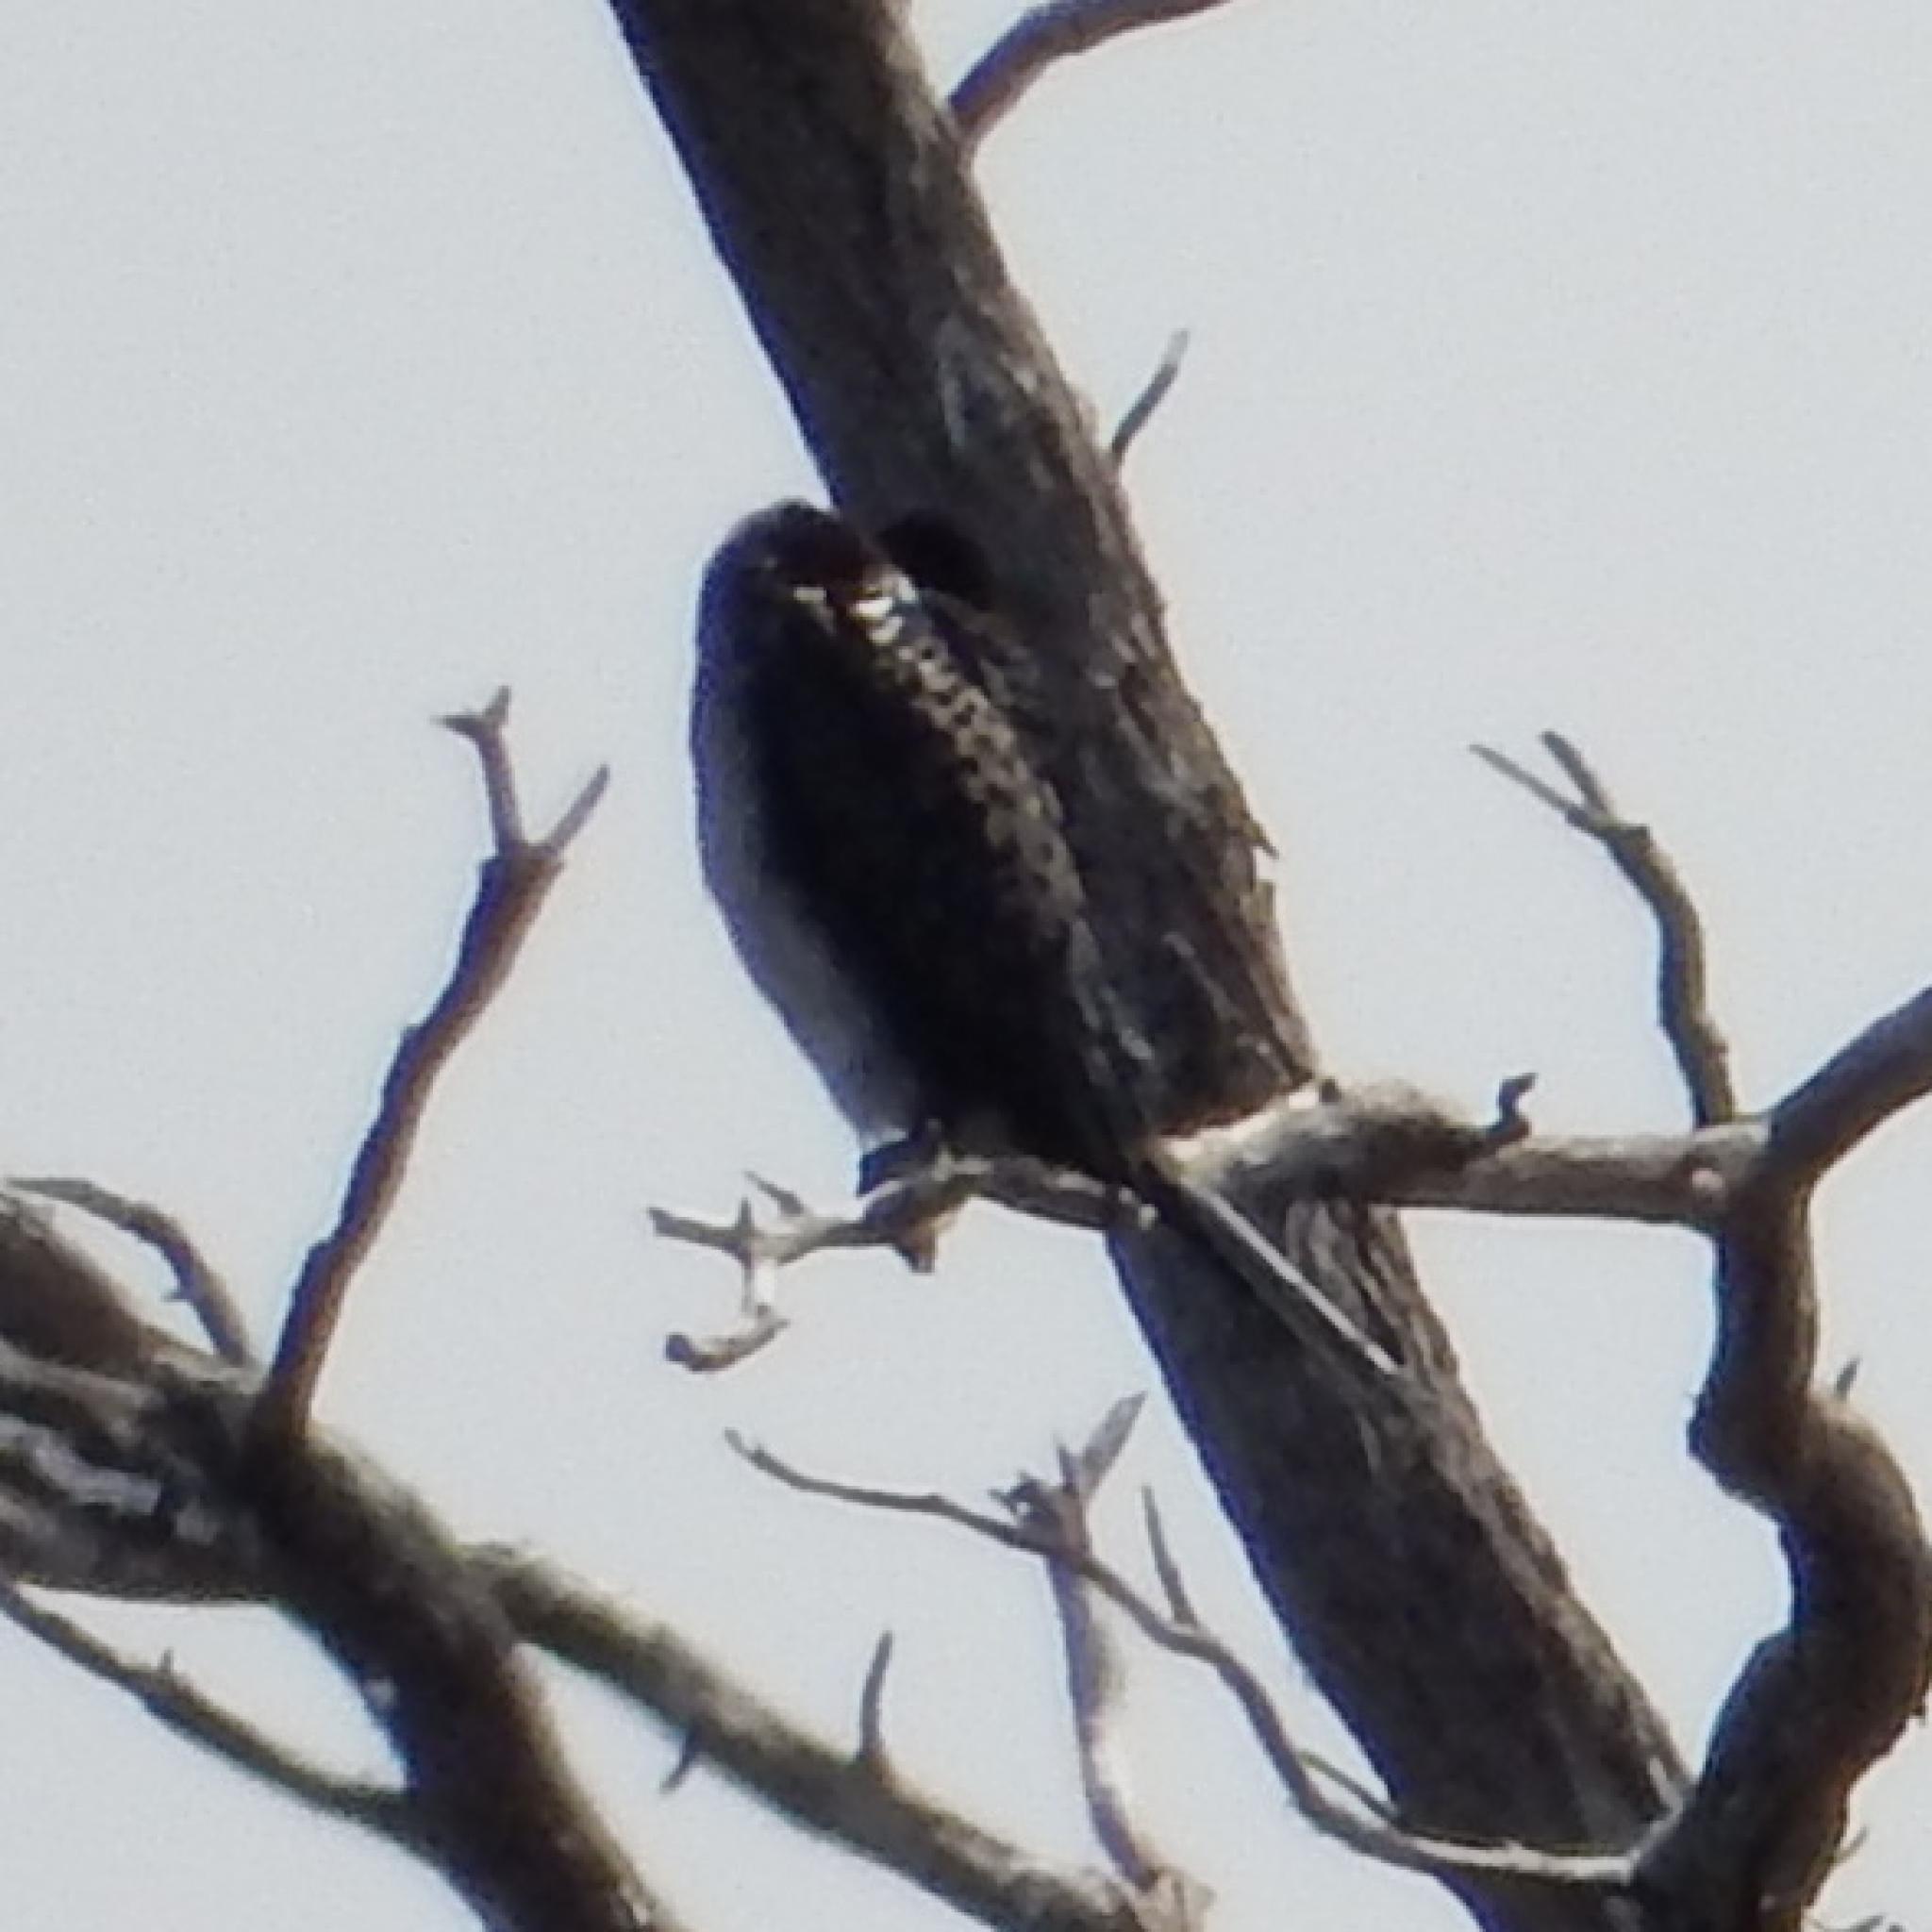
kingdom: Animalia
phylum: Chordata
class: Aves
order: Suliformes
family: Phalacrocoracidae
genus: Microcarbo
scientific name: Microcarbo africanus
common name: Long-tailed cormorant
